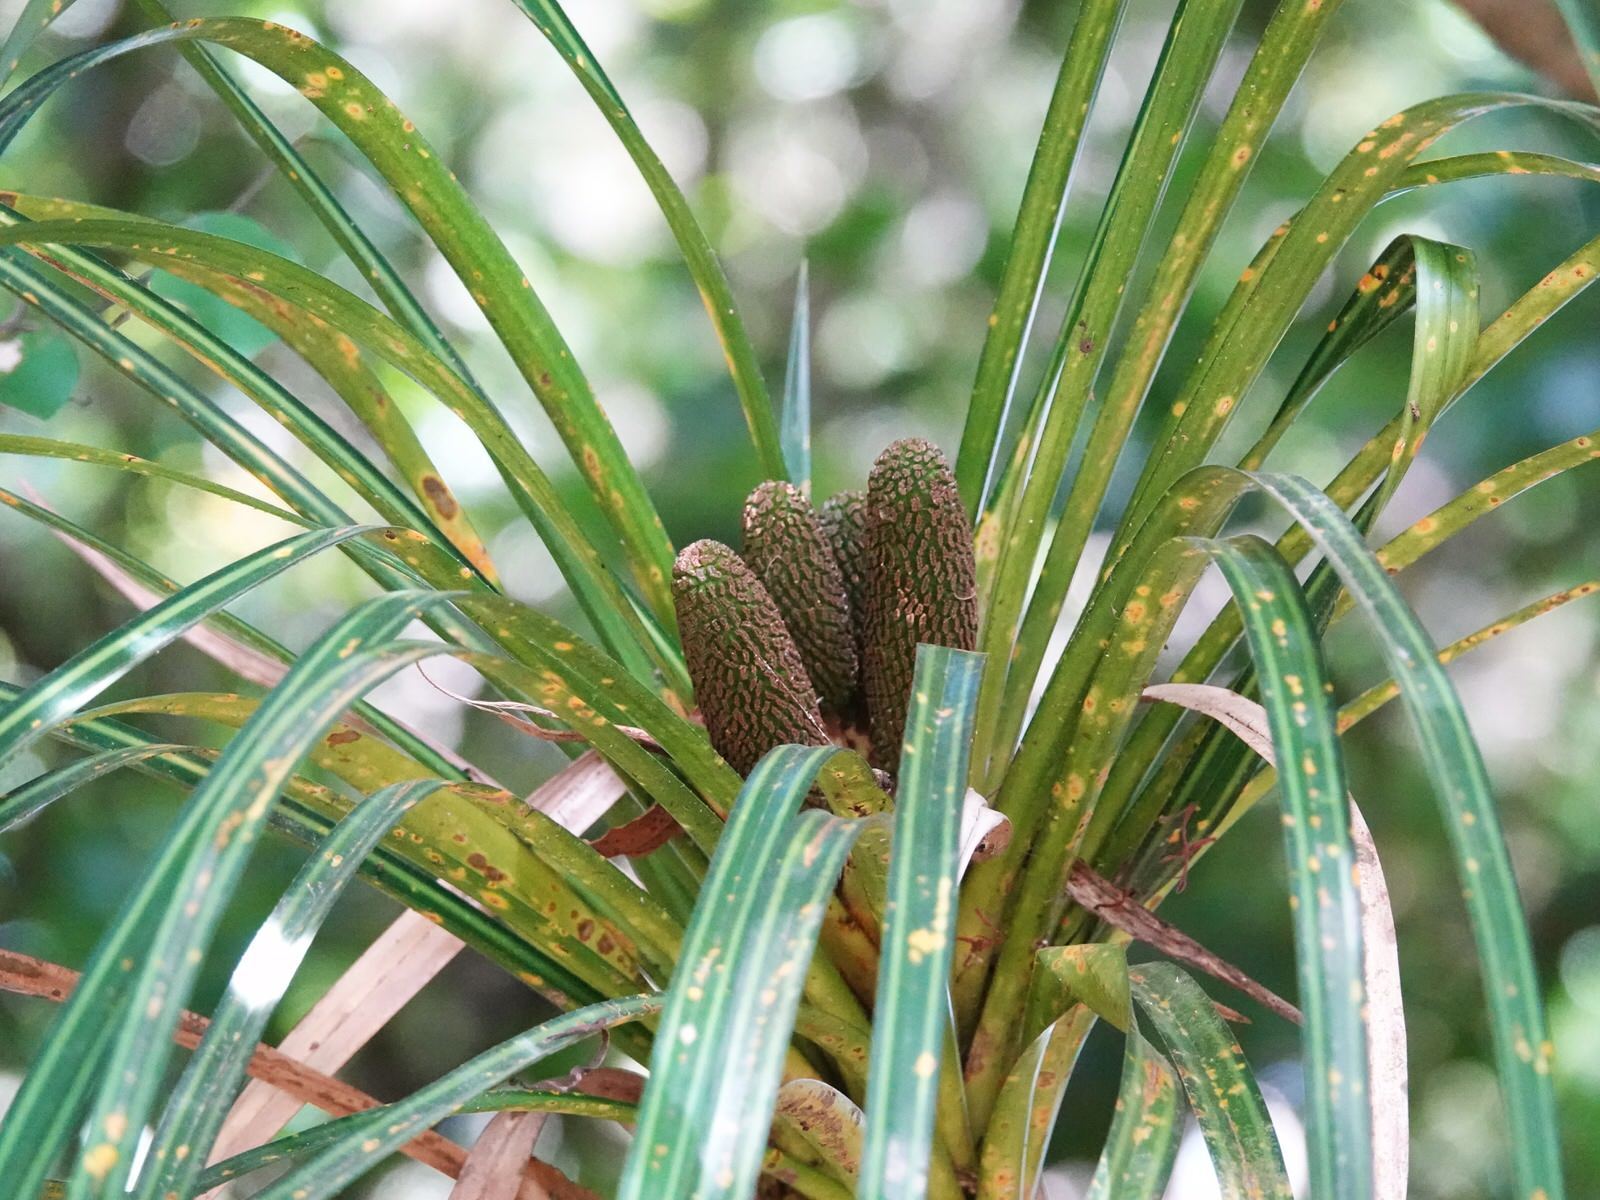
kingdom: Plantae
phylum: Tracheophyta
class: Liliopsida
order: Pandanales
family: Pandanaceae
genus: Freycinetia
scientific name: Freycinetia banksii
